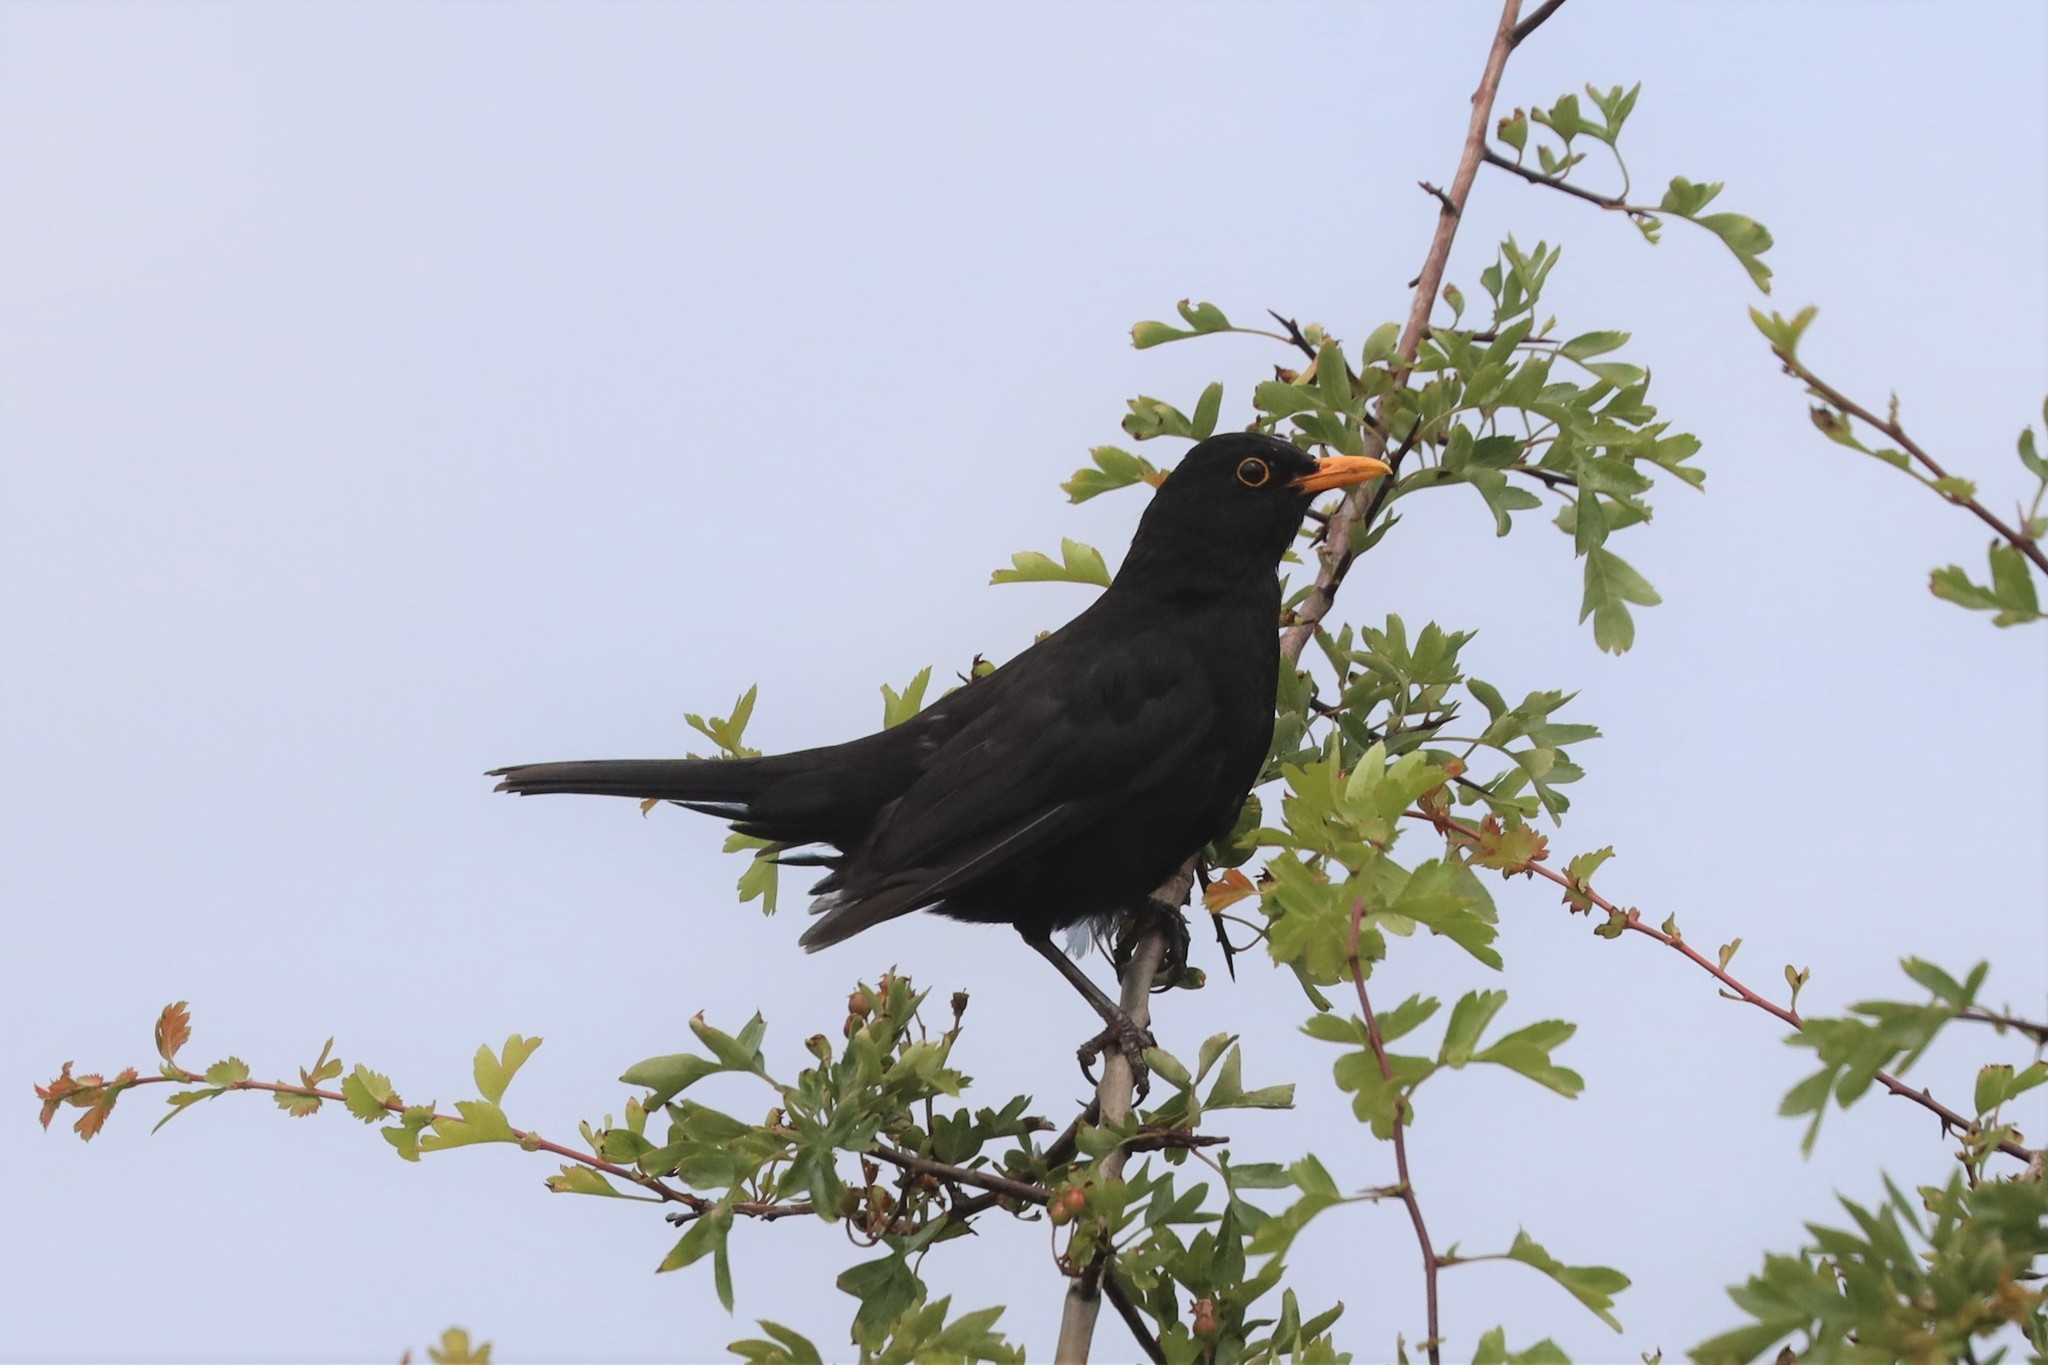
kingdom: Animalia
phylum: Chordata
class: Aves
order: Passeriformes
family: Turdidae
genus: Turdus
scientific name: Turdus merula
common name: Common blackbird
